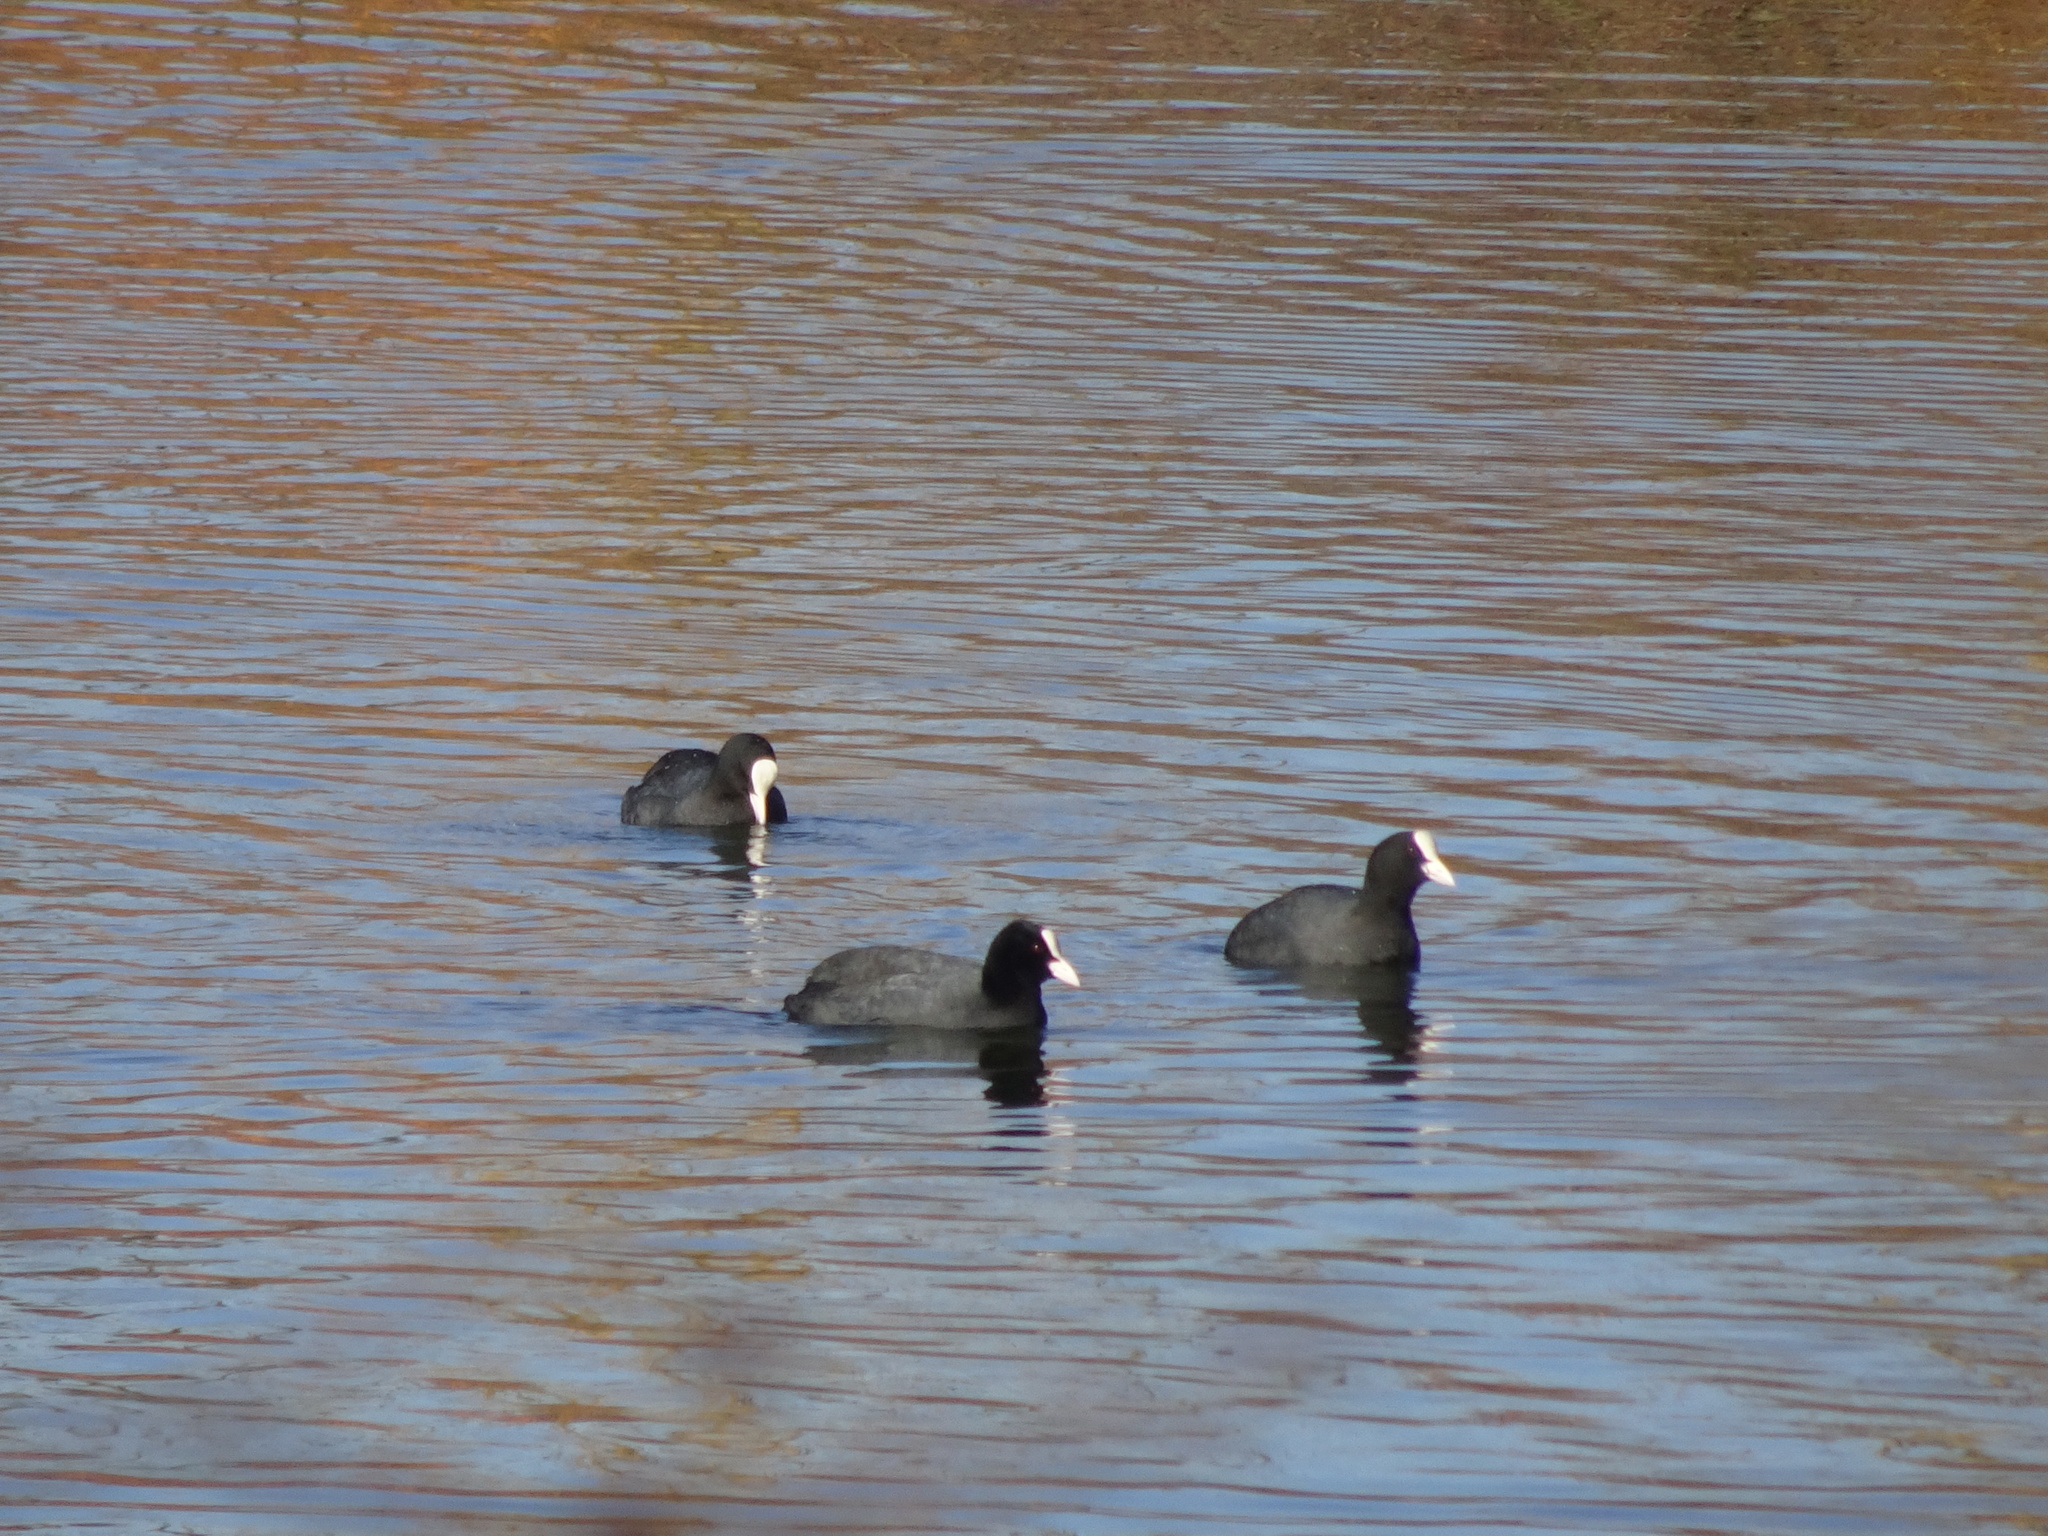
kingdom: Animalia
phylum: Chordata
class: Aves
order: Gruiformes
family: Rallidae
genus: Fulica
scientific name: Fulica atra
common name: Eurasian coot
